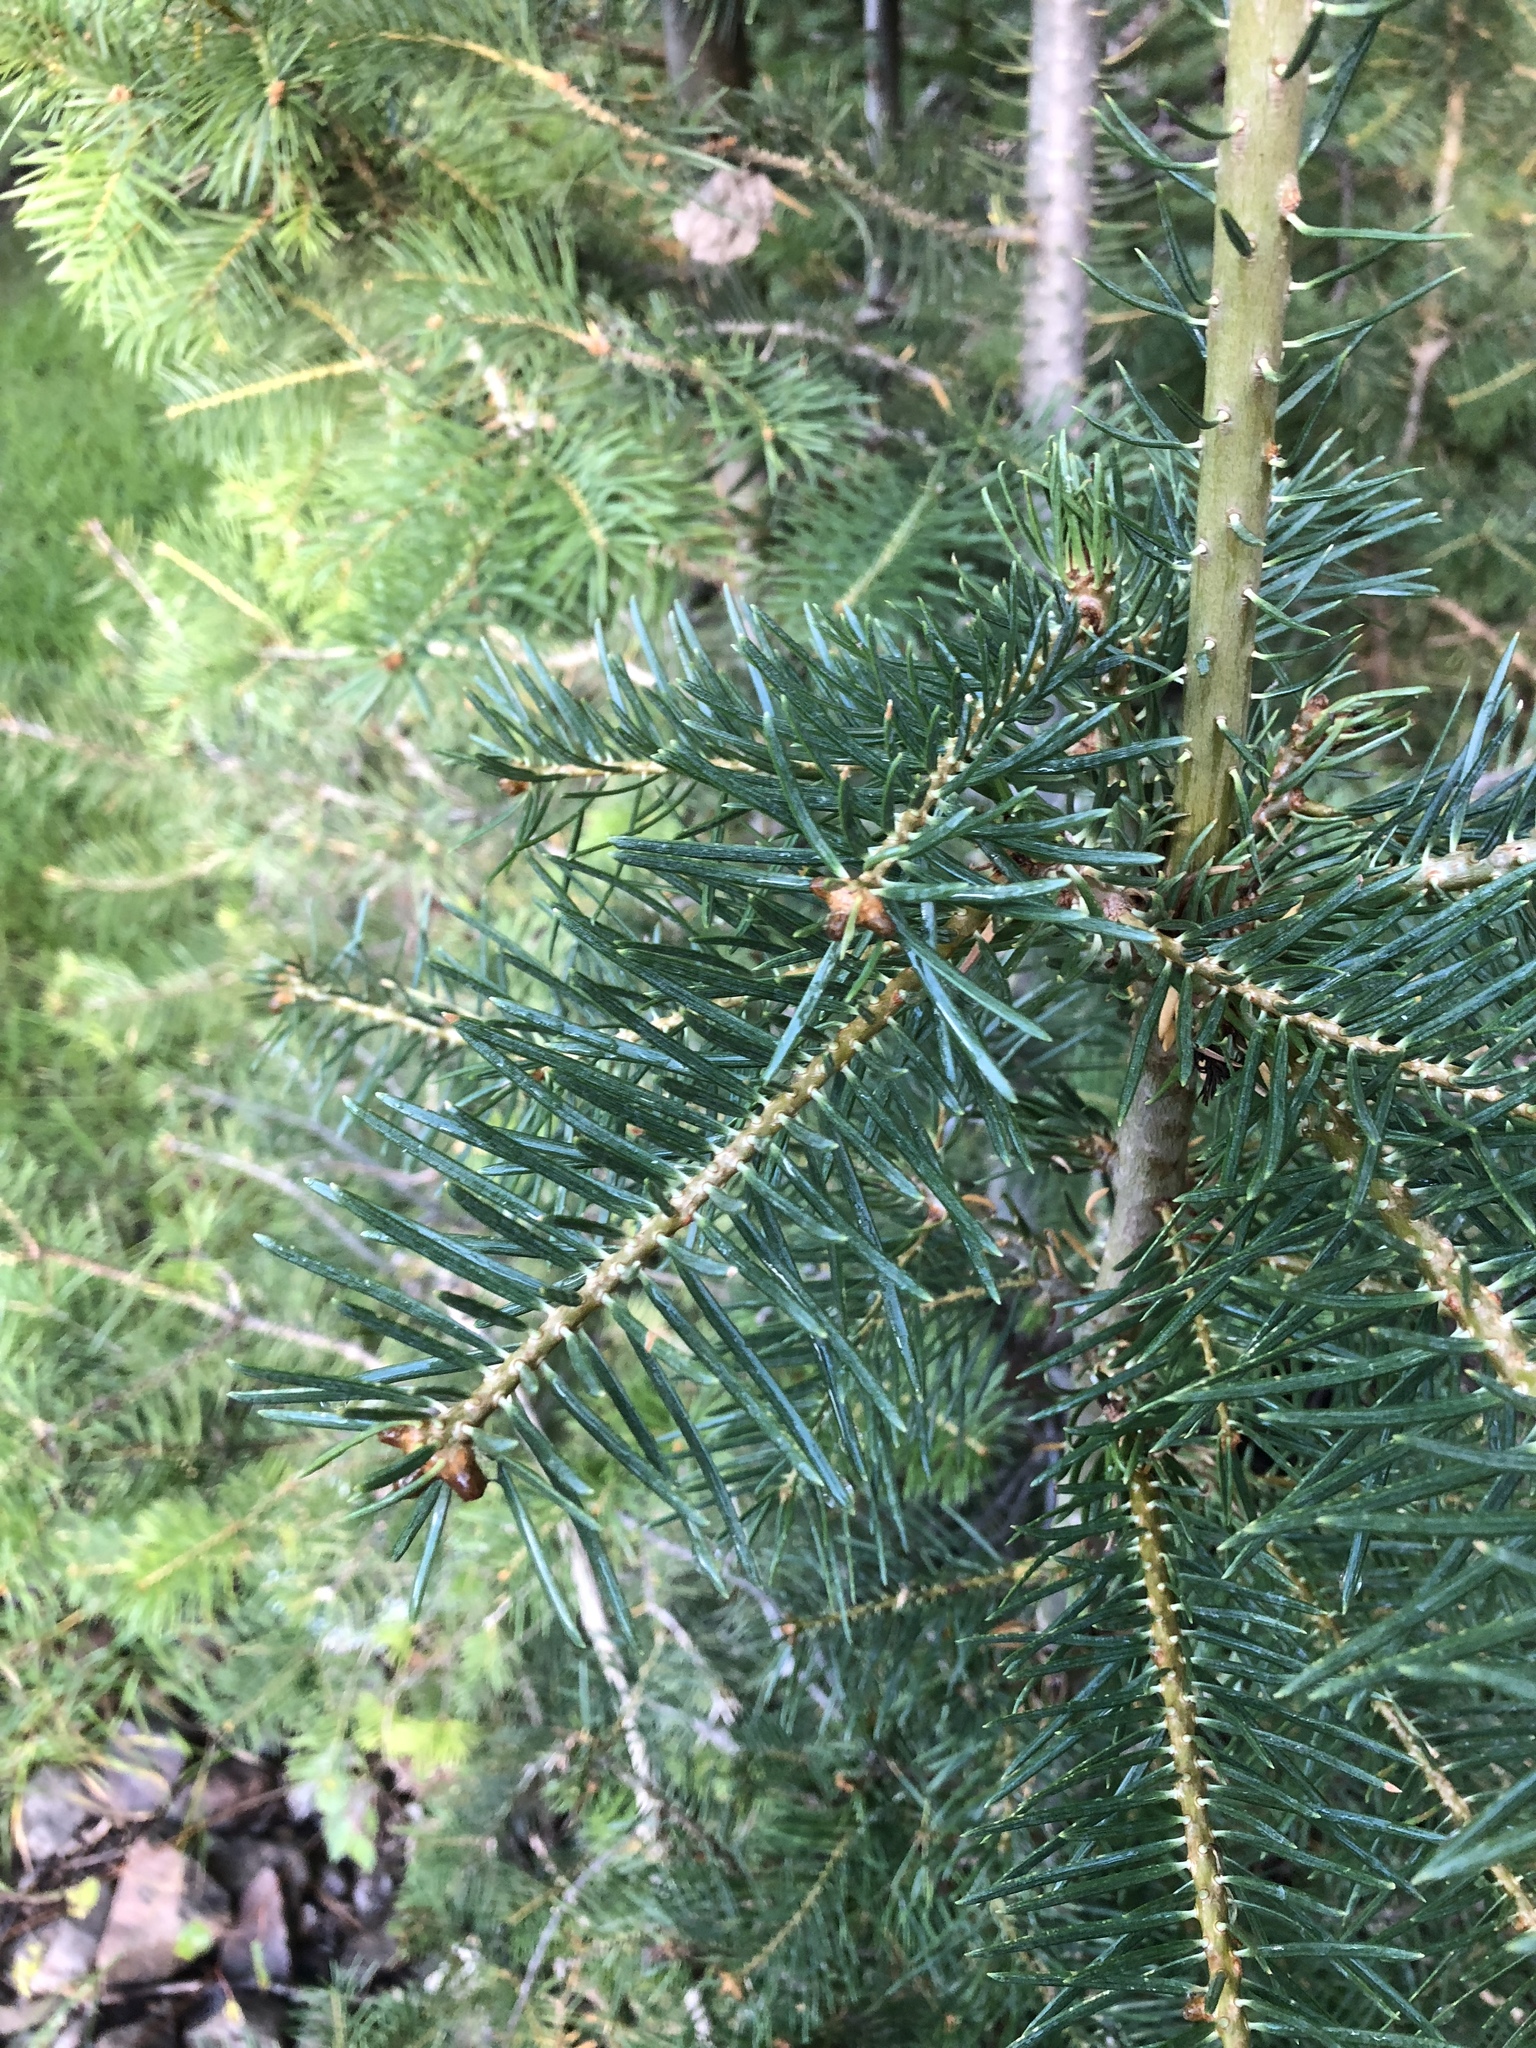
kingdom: Plantae
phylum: Tracheophyta
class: Pinopsida
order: Pinales
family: Pinaceae
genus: Abies
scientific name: Abies concolor
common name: Colorado fir
